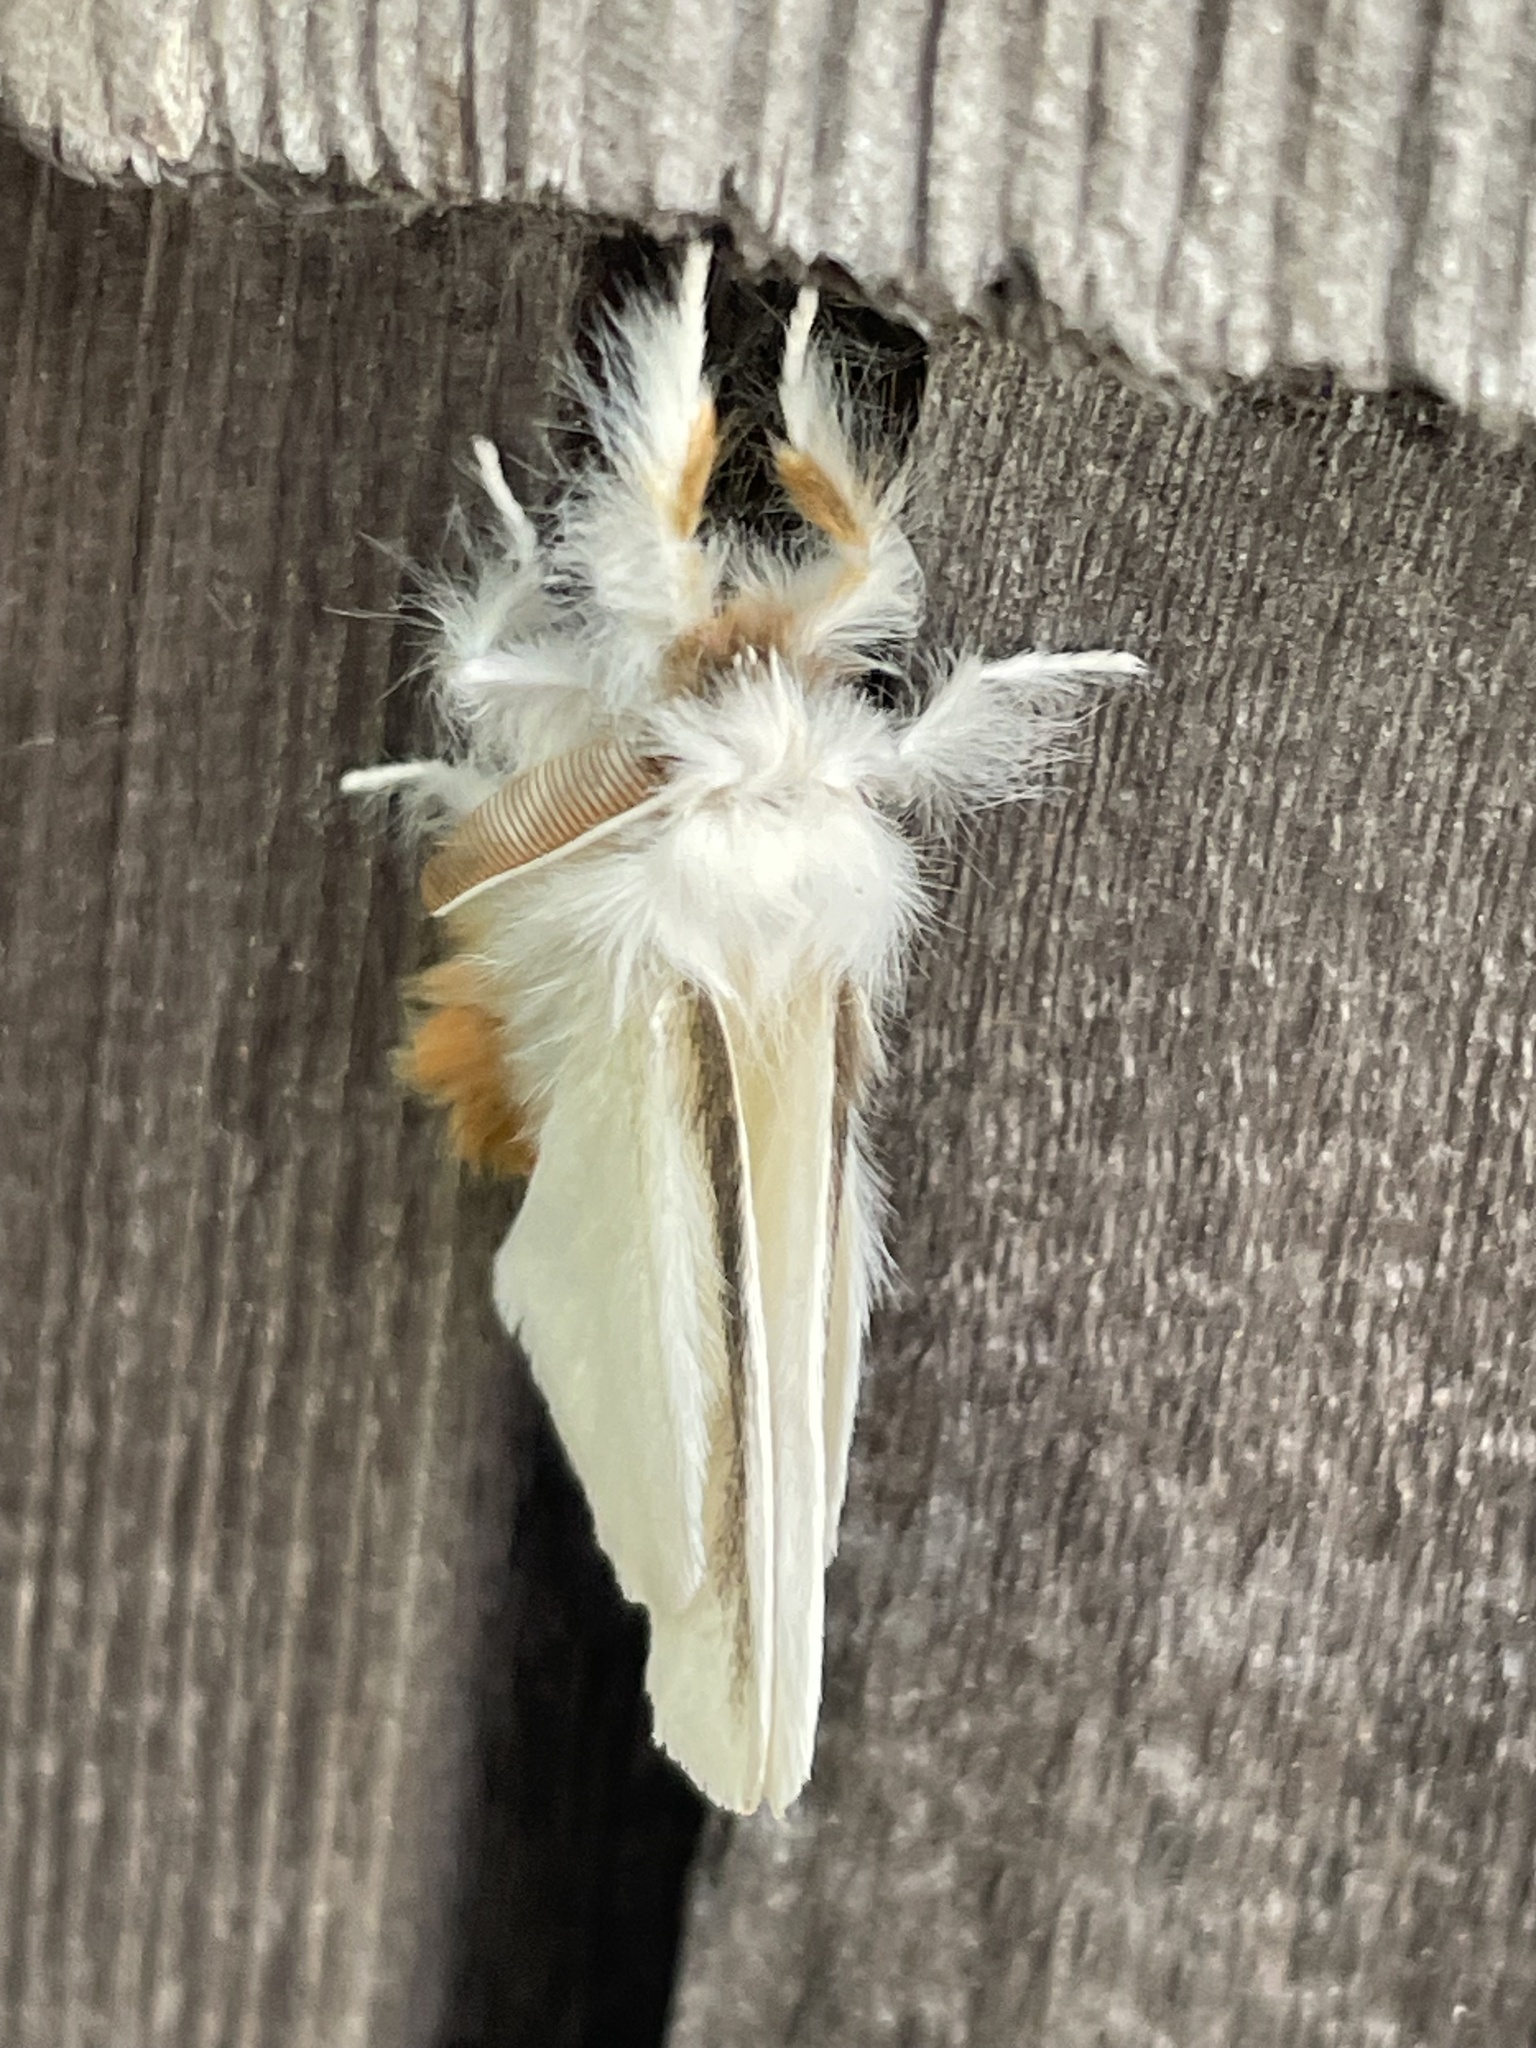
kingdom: Animalia
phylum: Arthropoda
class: Insecta
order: Lepidoptera
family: Erebidae
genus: Euproctis
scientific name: Euproctis chrysorrhoea
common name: Brown-tail
